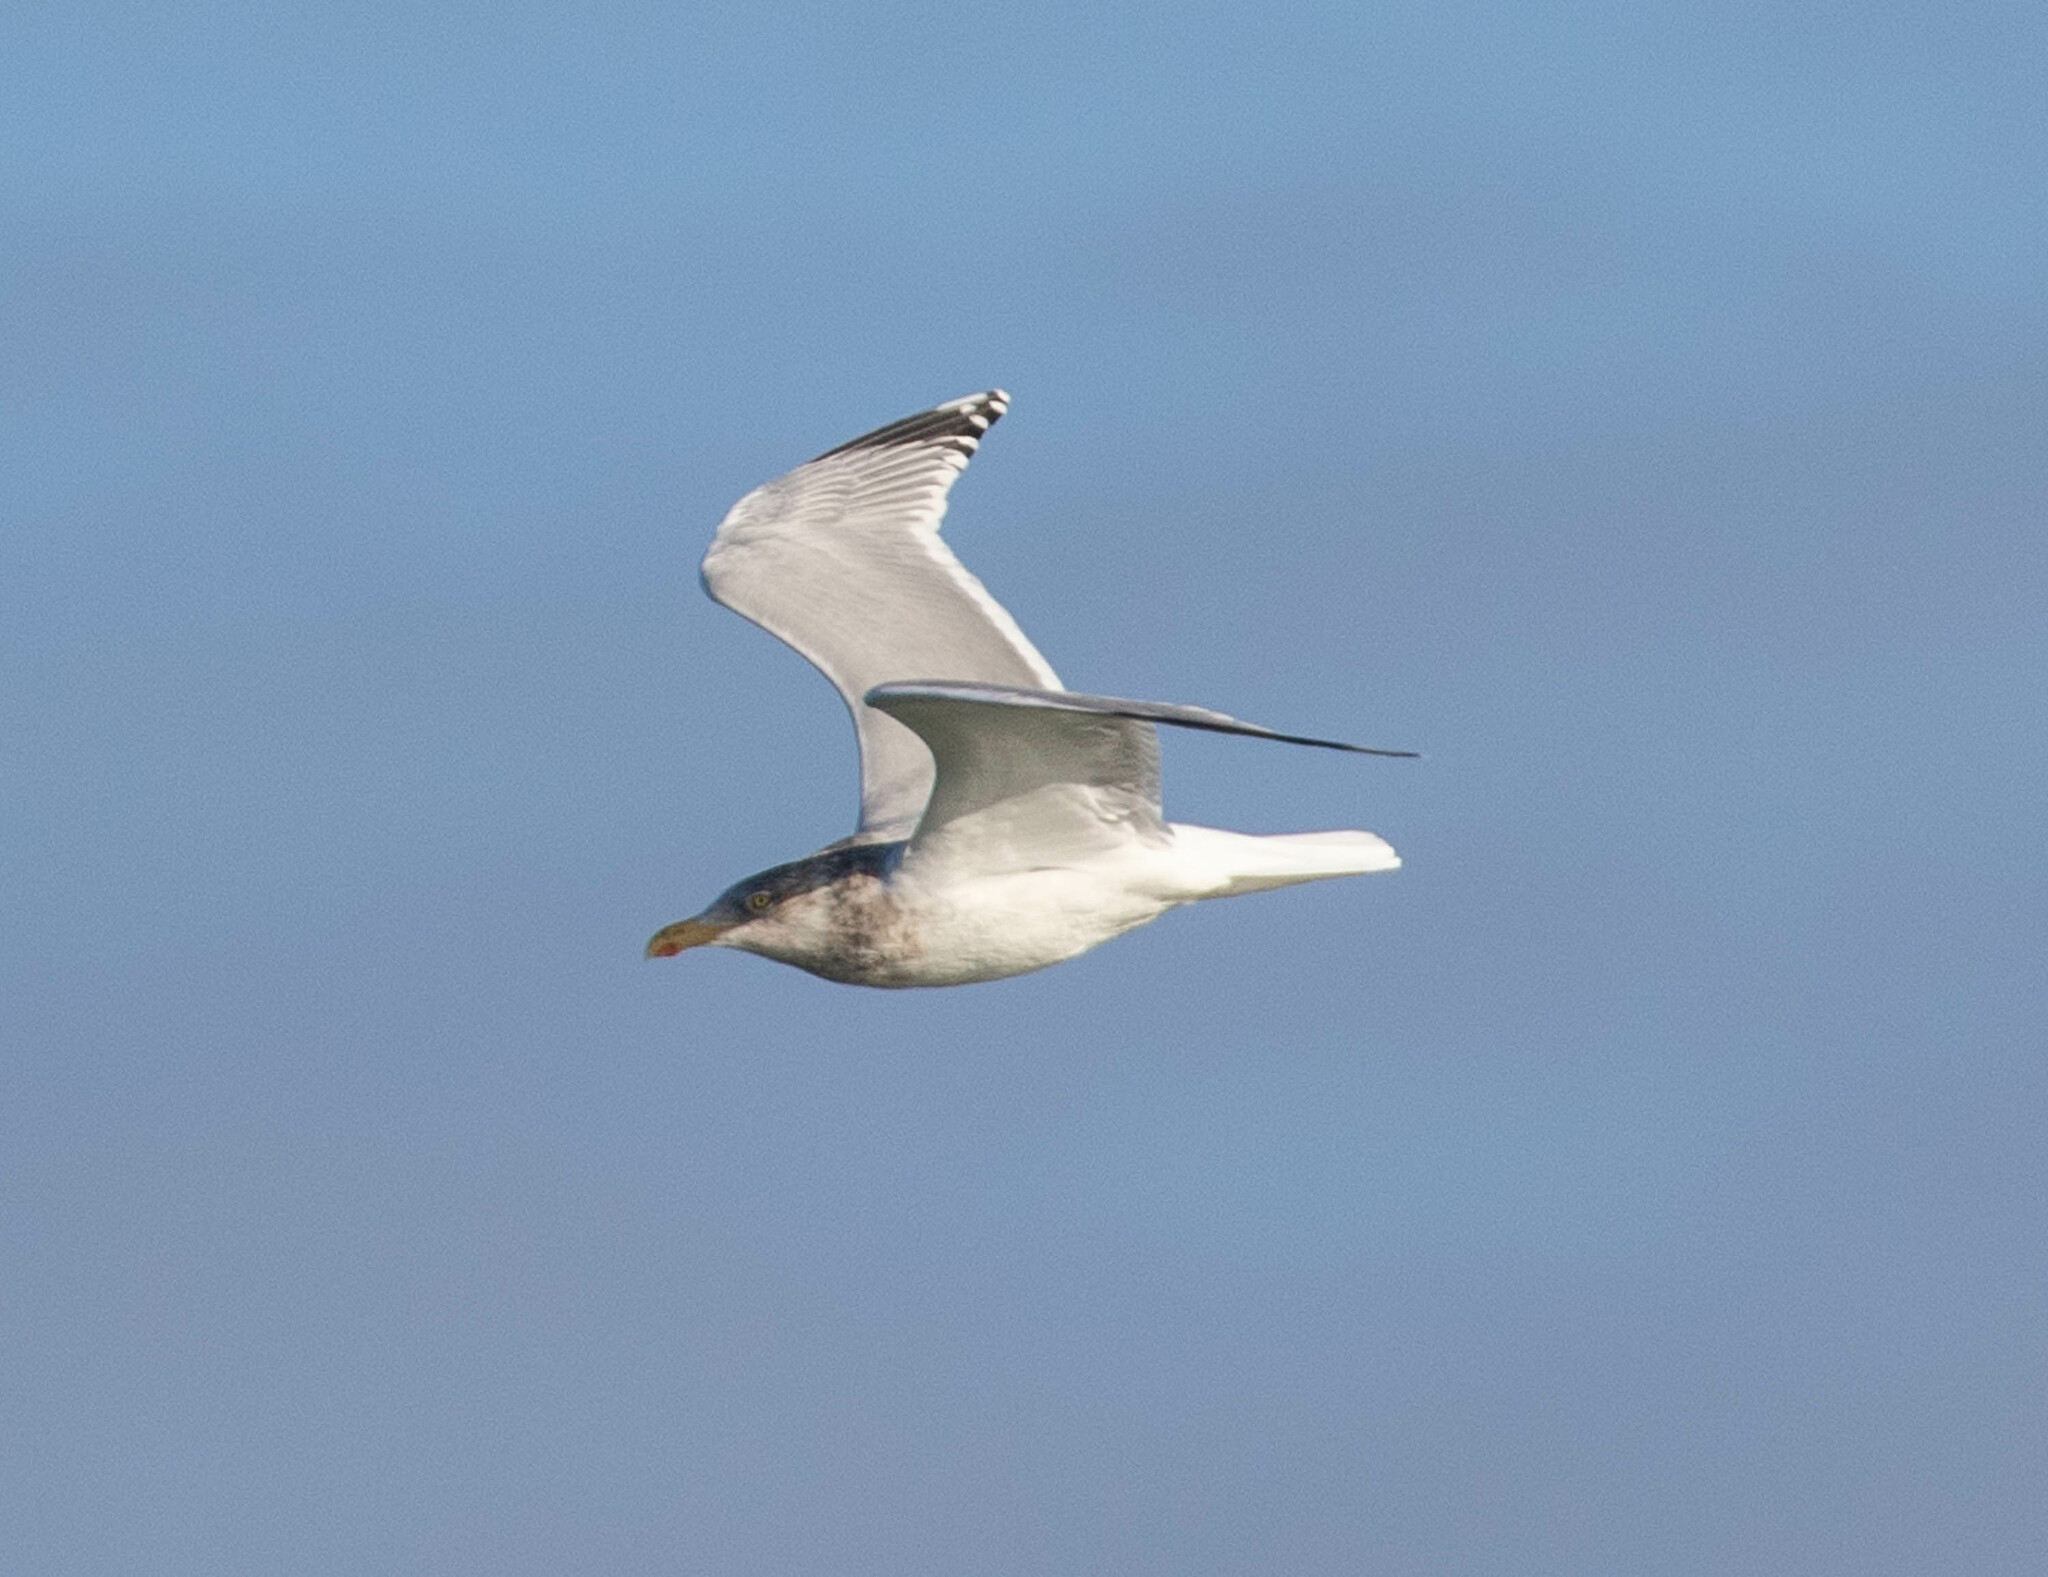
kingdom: Animalia
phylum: Chordata
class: Aves
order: Charadriiformes
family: Laridae
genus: Larus
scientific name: Larus argentatus
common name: Herring gull
